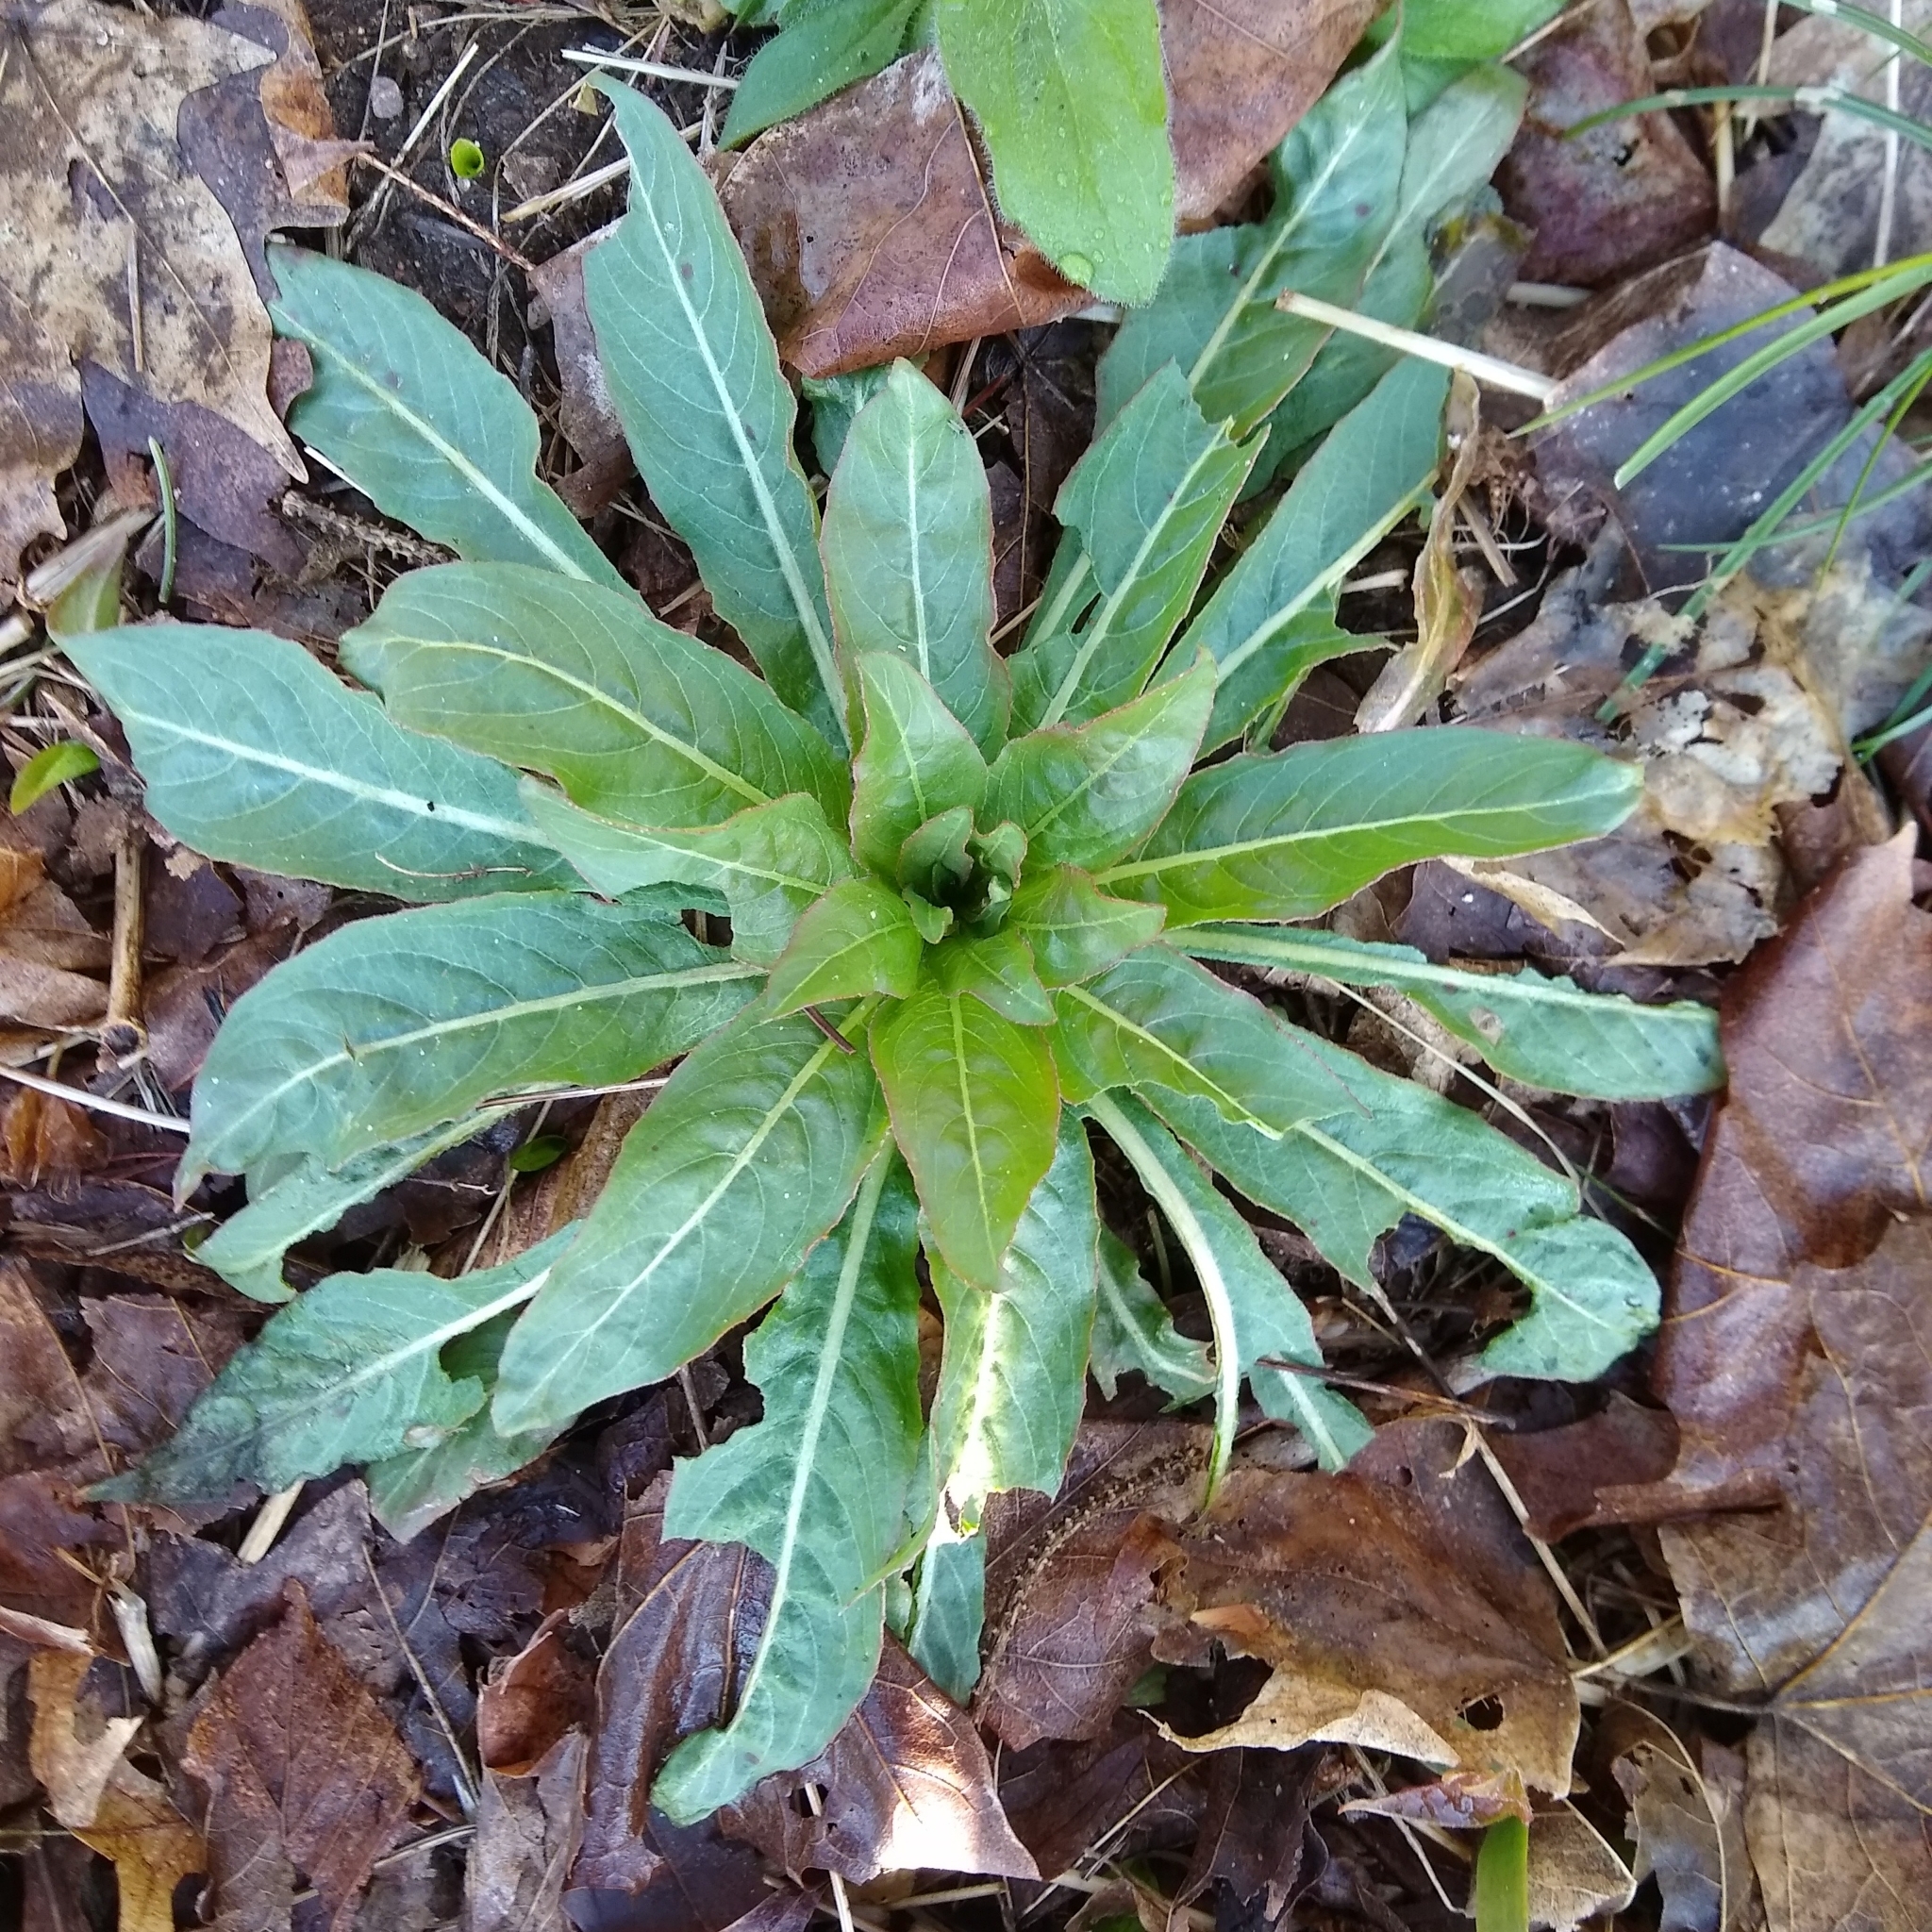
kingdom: Plantae
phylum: Tracheophyta
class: Magnoliopsida
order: Myrtales
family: Onagraceae
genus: Oenothera
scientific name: Oenothera
